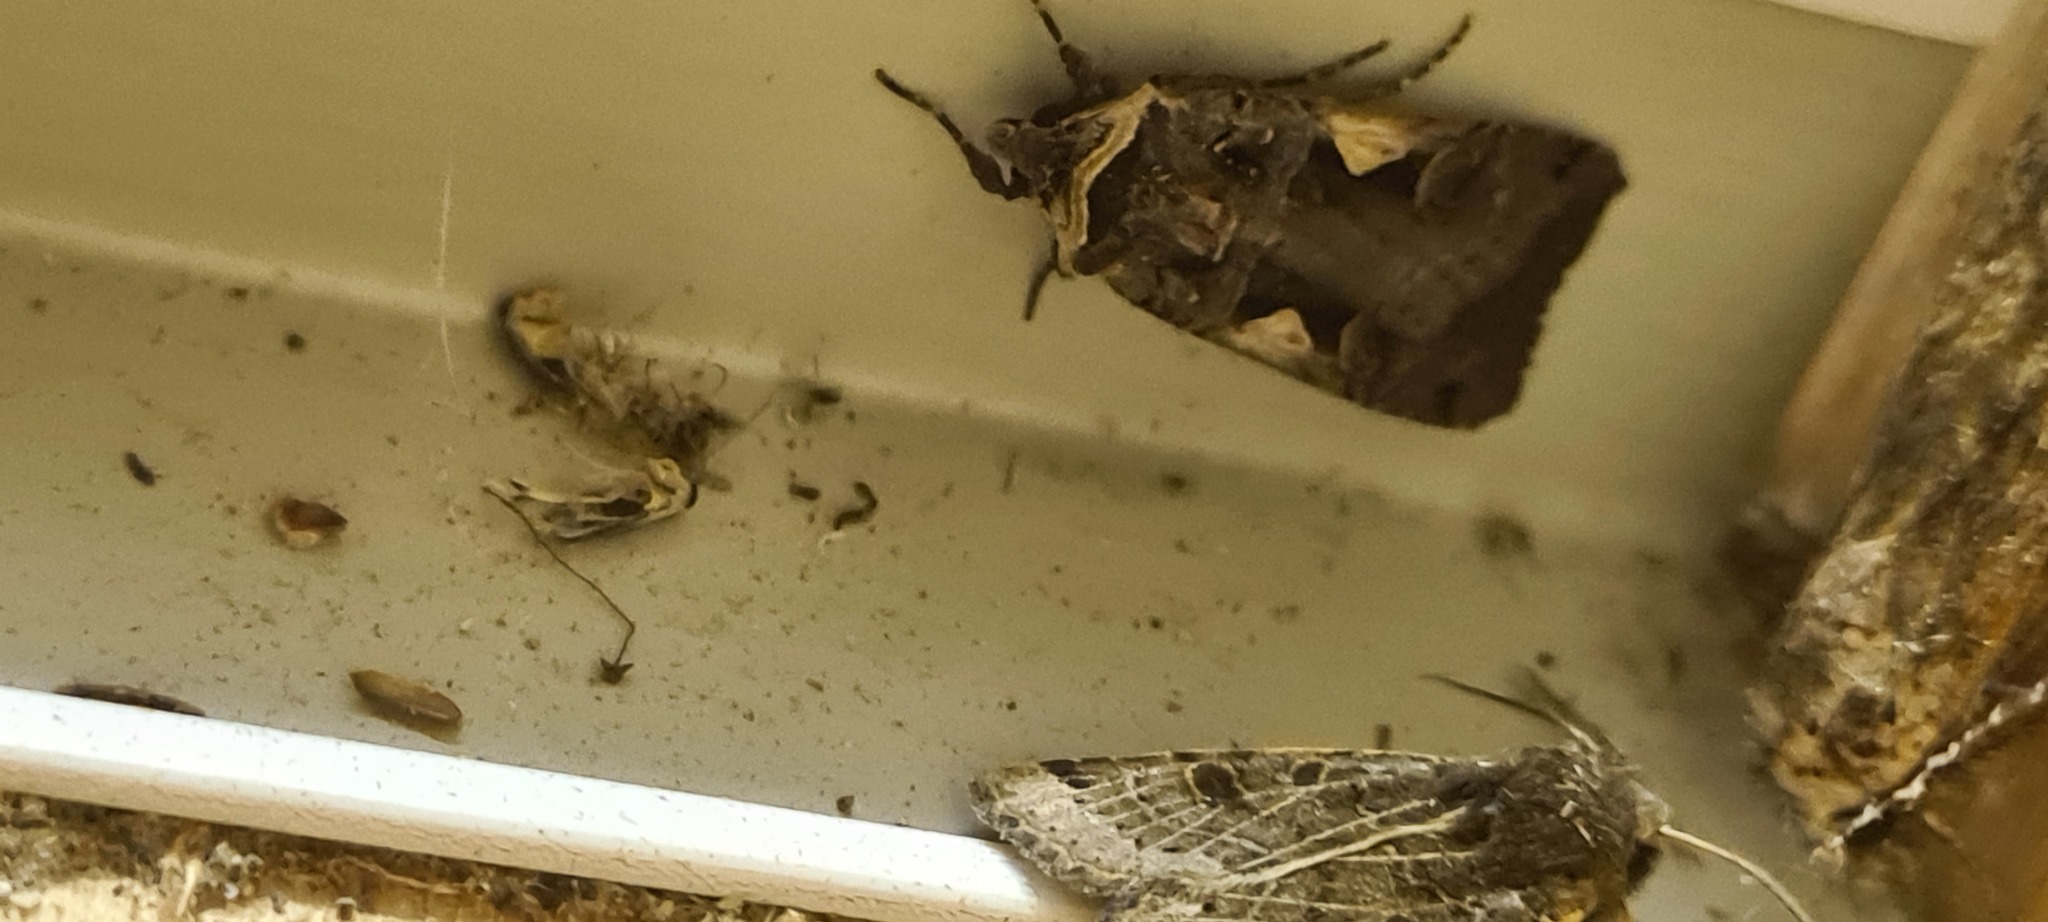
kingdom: Animalia
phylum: Arthropoda
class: Insecta
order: Lepidoptera
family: Noctuidae
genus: Xestia
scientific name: Xestia c-nigrum
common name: Setaceous hebrew character
